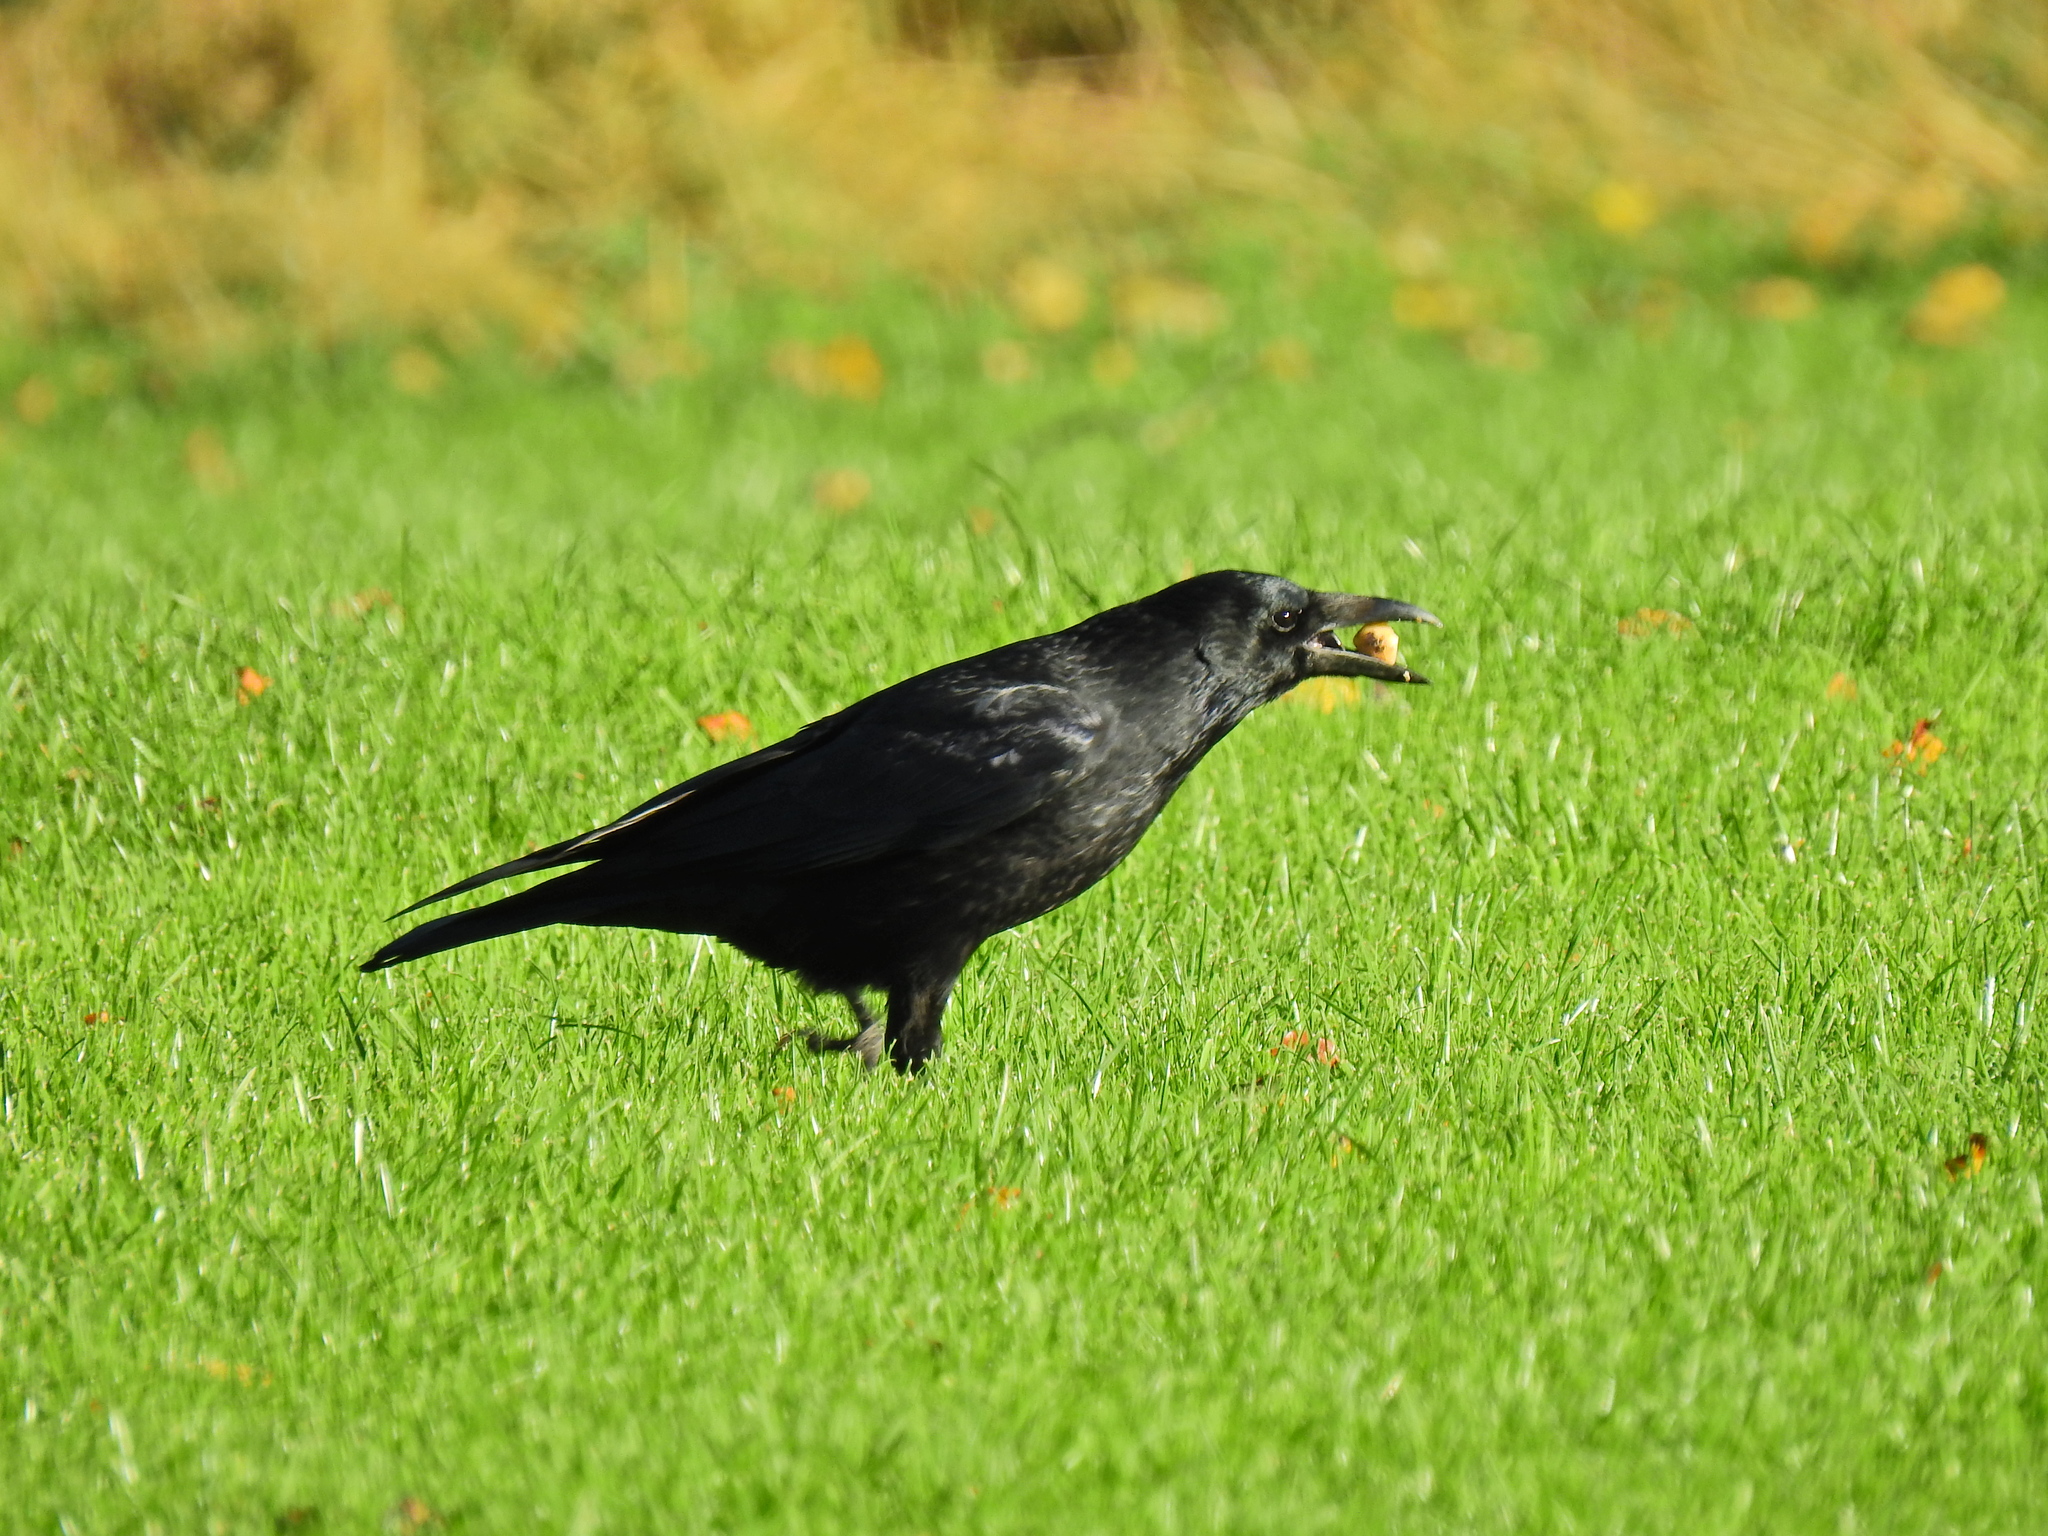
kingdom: Animalia
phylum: Chordata
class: Aves
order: Passeriformes
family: Corvidae
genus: Corvus
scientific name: Corvus corone
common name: Carrion crow
